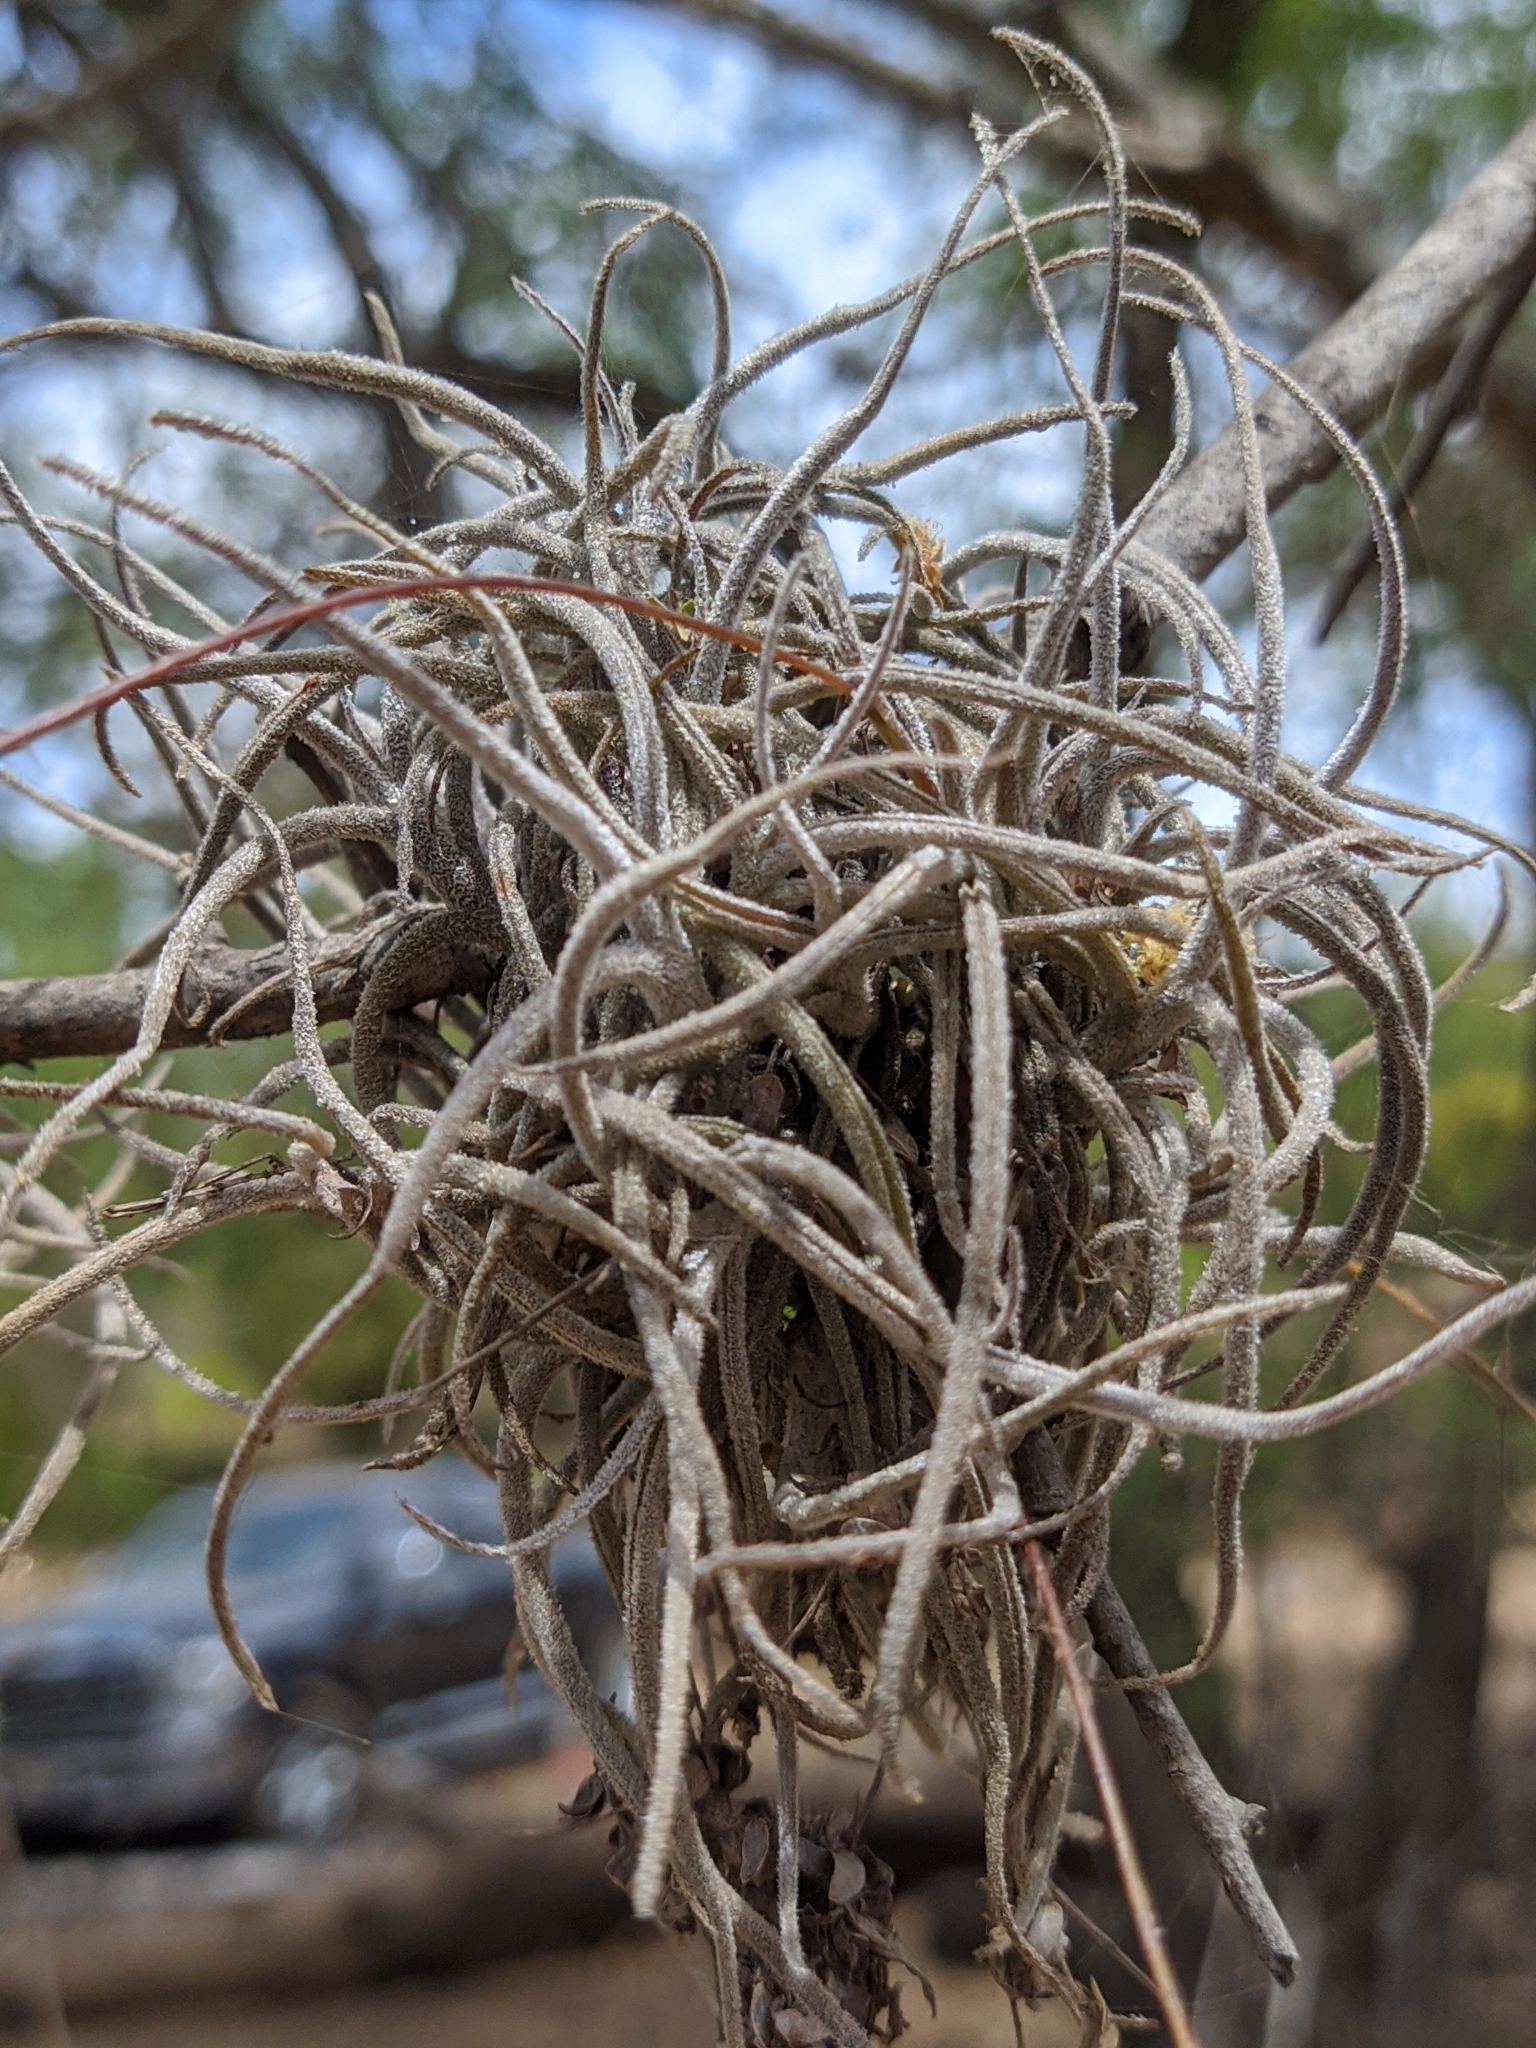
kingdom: Plantae
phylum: Tracheophyta
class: Liliopsida
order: Poales
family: Bromeliaceae
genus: Tillandsia
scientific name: Tillandsia recurvata
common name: Small ballmoss
